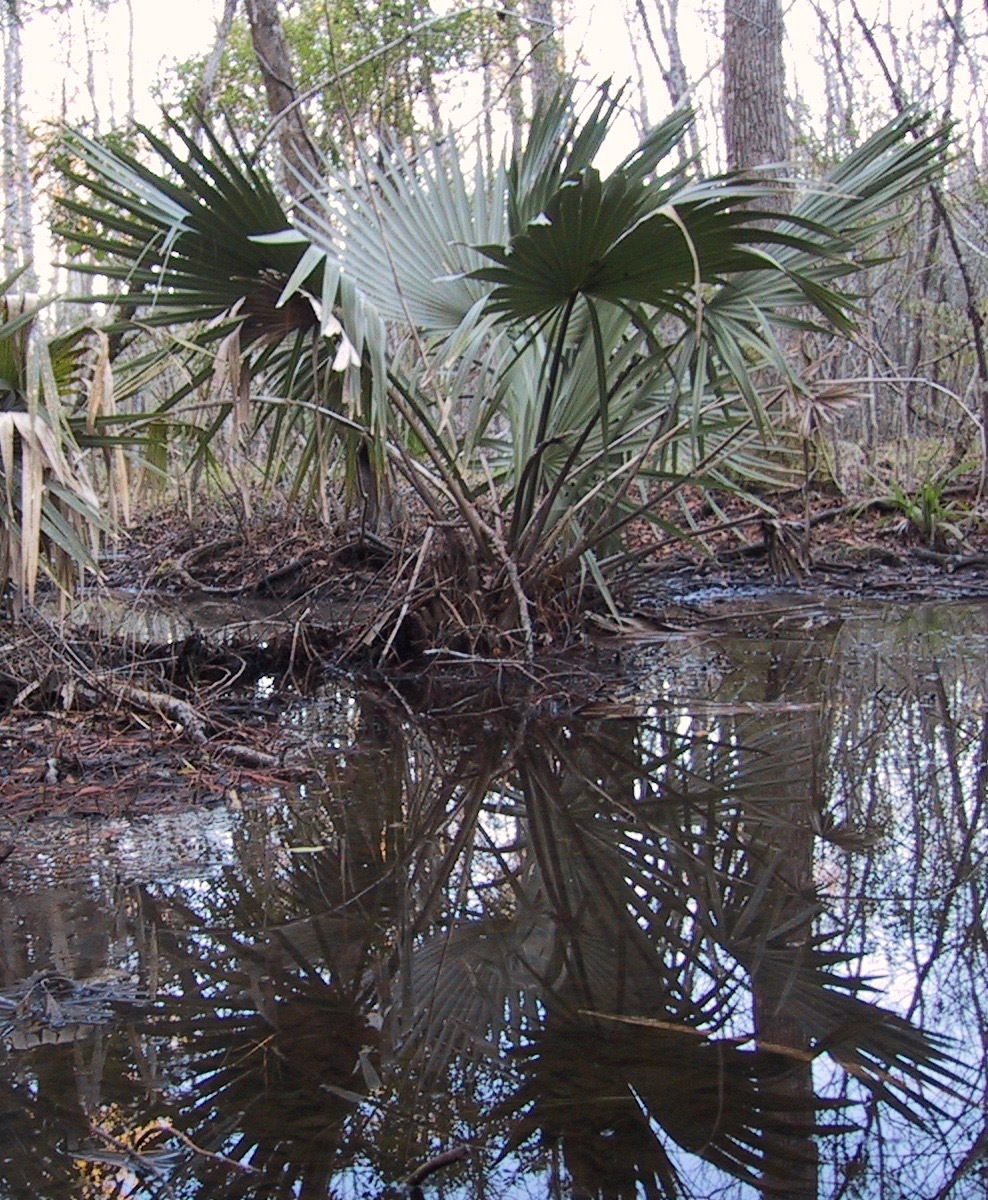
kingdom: Plantae
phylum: Tracheophyta
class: Liliopsida
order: Arecales
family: Arecaceae
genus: Sabal
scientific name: Sabal minor
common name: Dwarf palmetto
